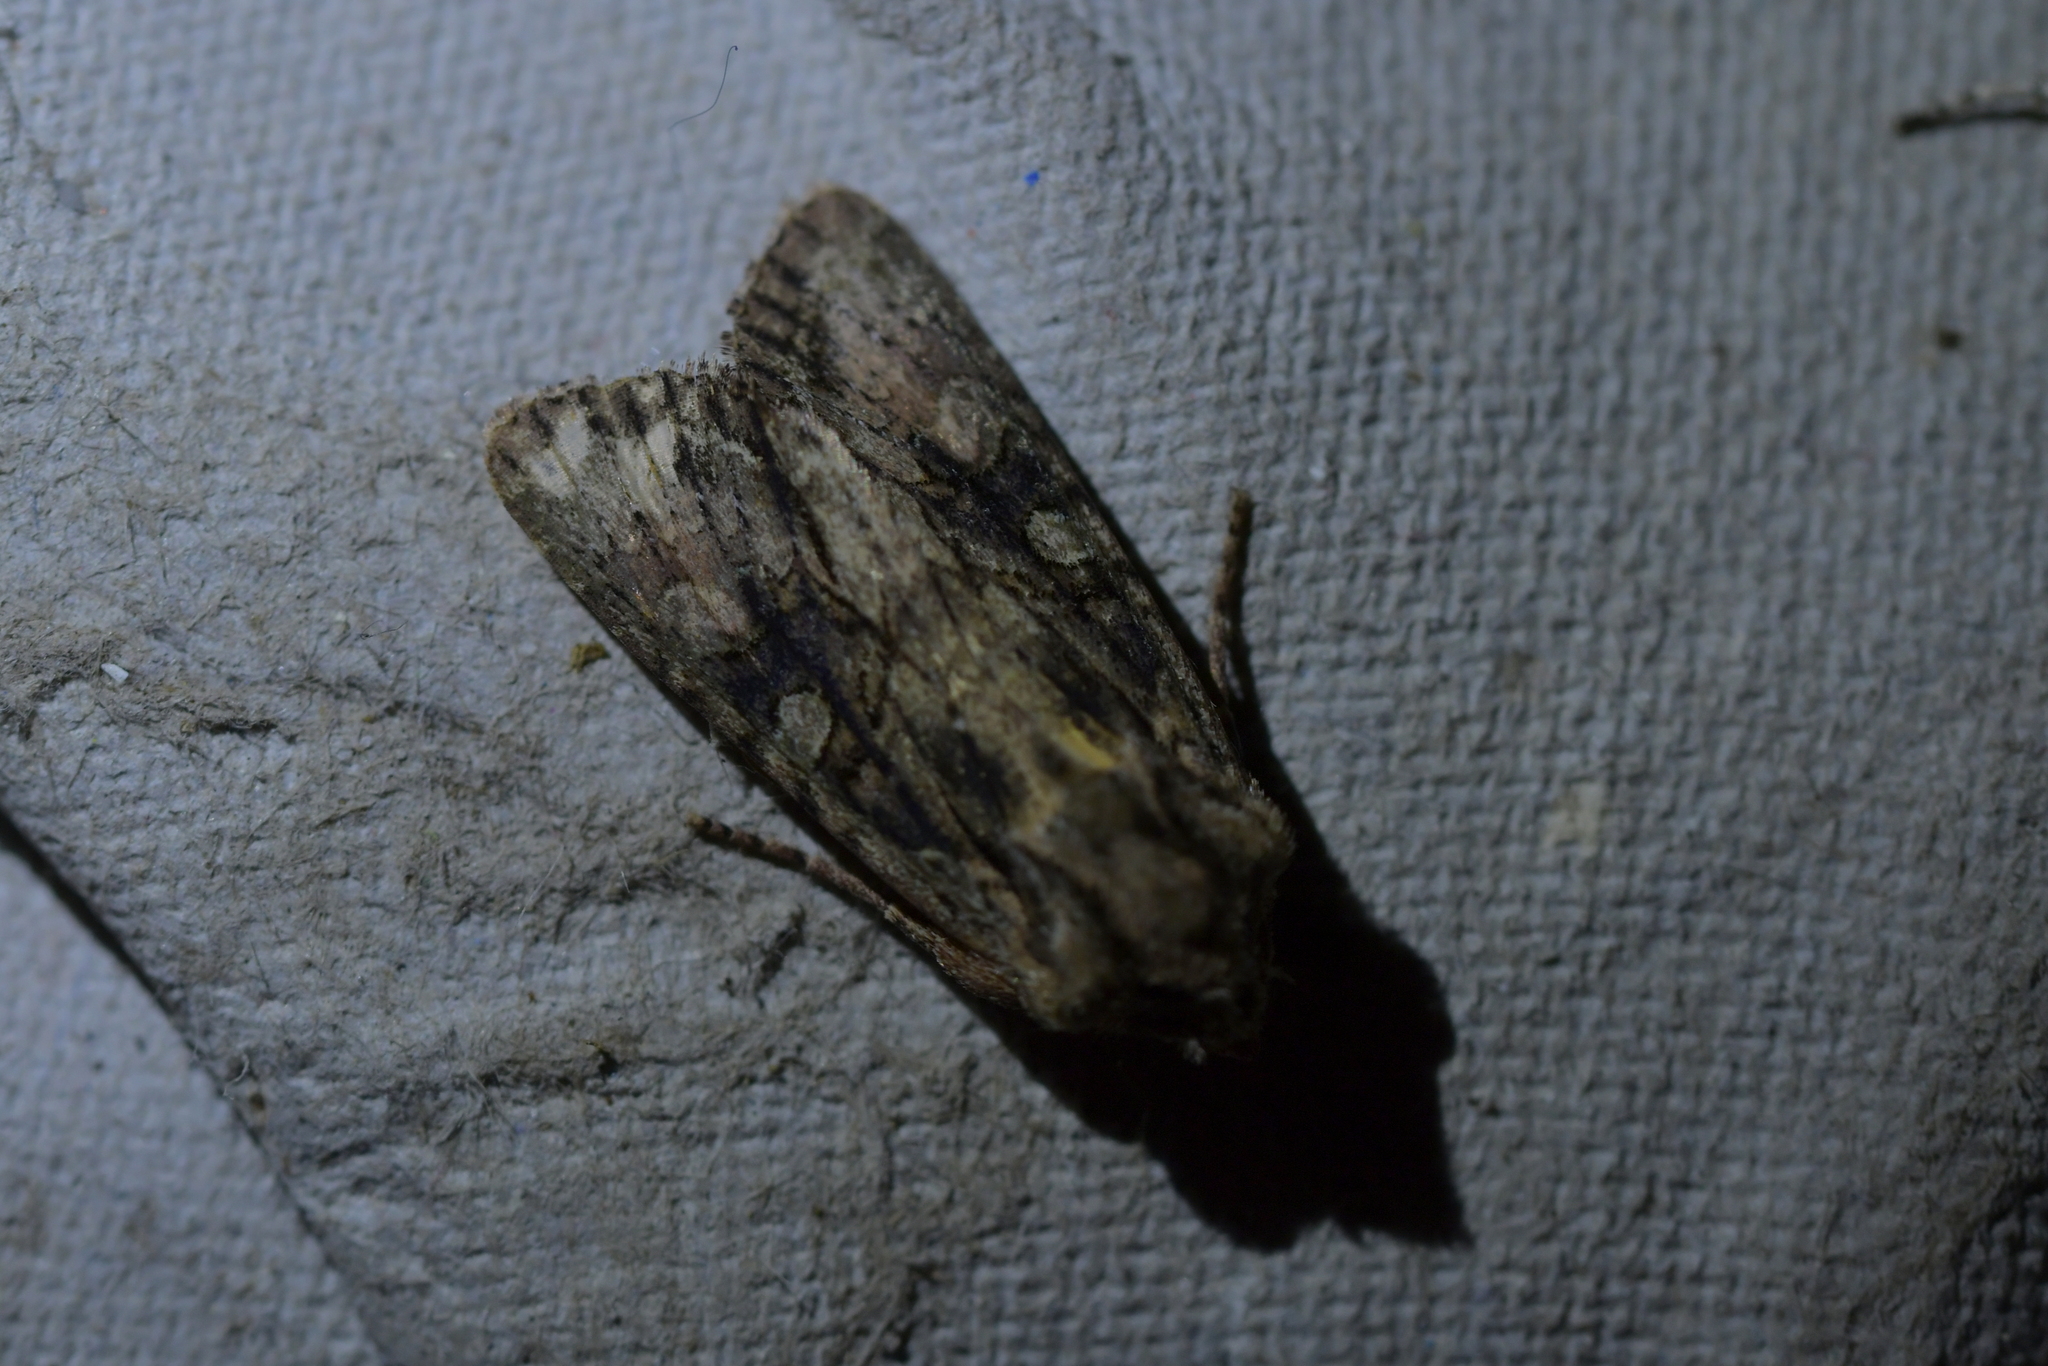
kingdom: Animalia
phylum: Arthropoda
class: Insecta
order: Lepidoptera
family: Noctuidae
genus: Ichneutica
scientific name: Ichneutica mutans
